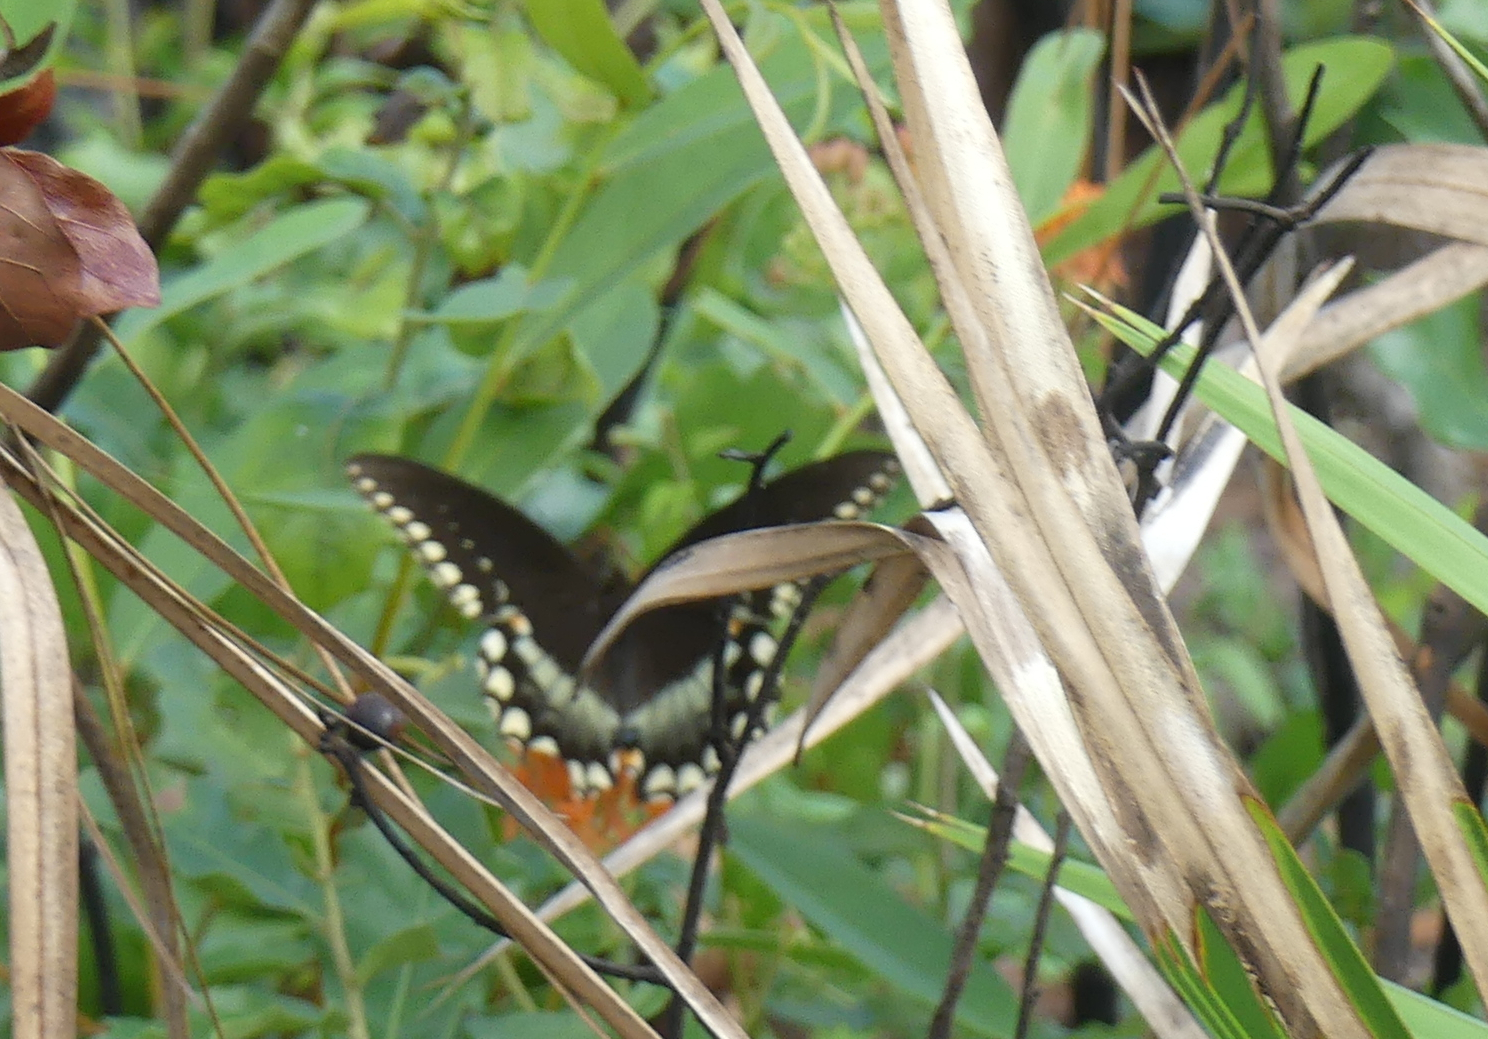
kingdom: Animalia
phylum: Arthropoda
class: Insecta
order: Lepidoptera
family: Papilionidae
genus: Papilio
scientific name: Papilio troilus
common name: Spicebush swallowtail
